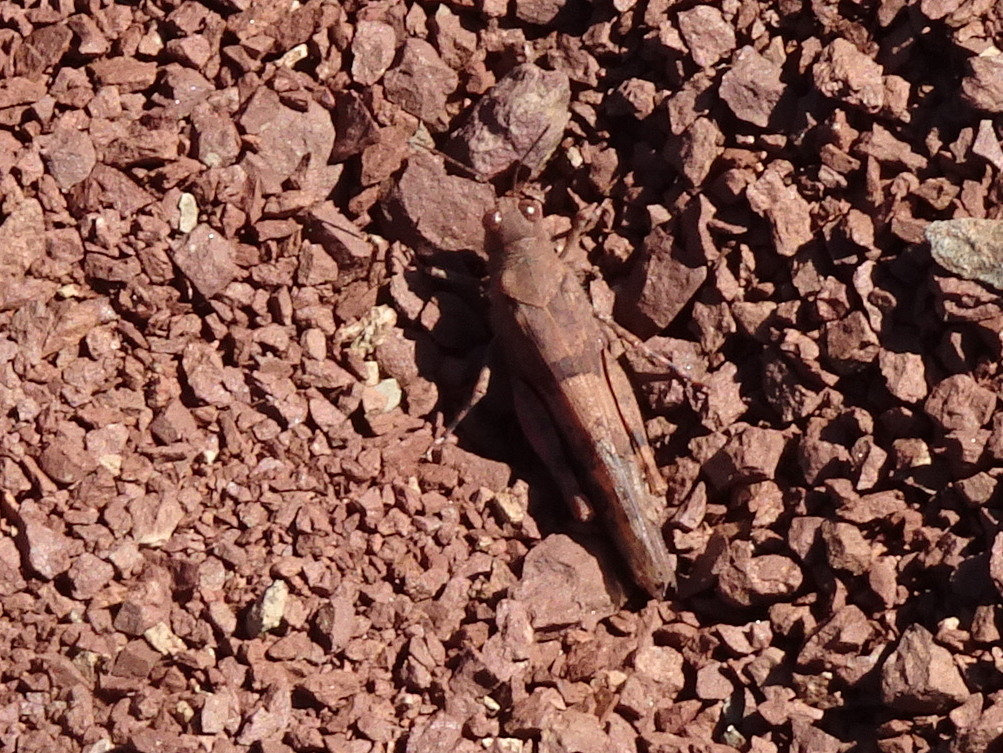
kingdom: Animalia
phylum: Arthropoda
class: Insecta
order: Orthoptera
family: Acrididae
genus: Sphingonotus
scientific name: Sphingonotus caerulans
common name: Blue-winged locust
